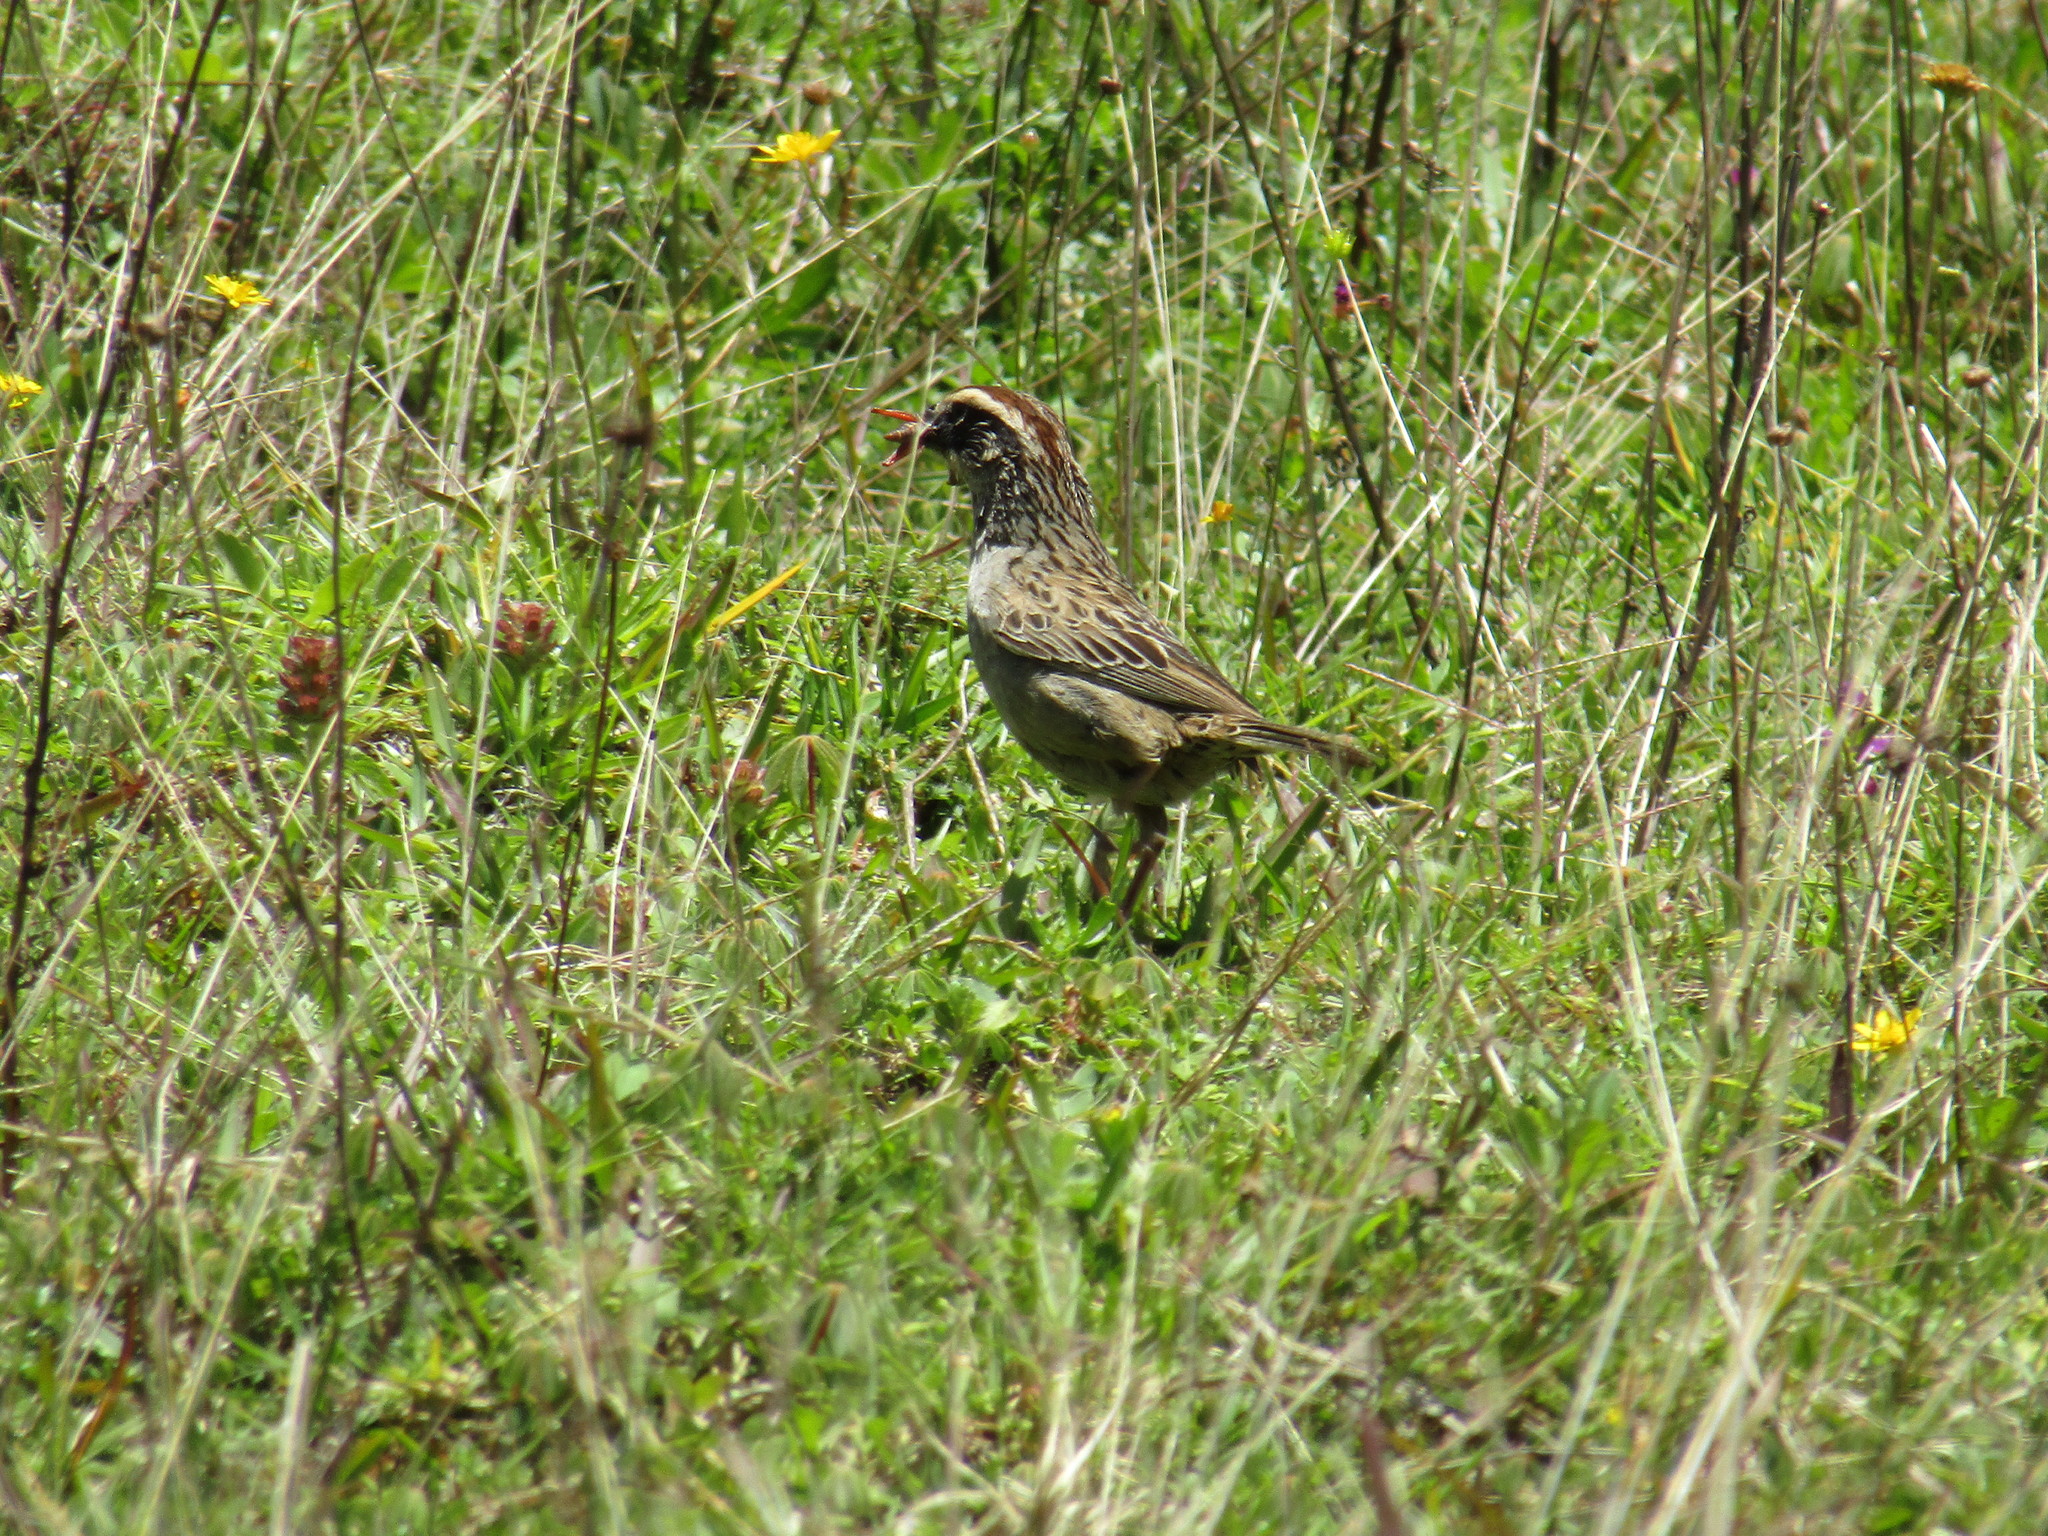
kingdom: Animalia
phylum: Chordata
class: Aves
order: Passeriformes
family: Passerellidae
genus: Oriturus
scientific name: Oriturus superciliosus
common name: Striped sparrow
